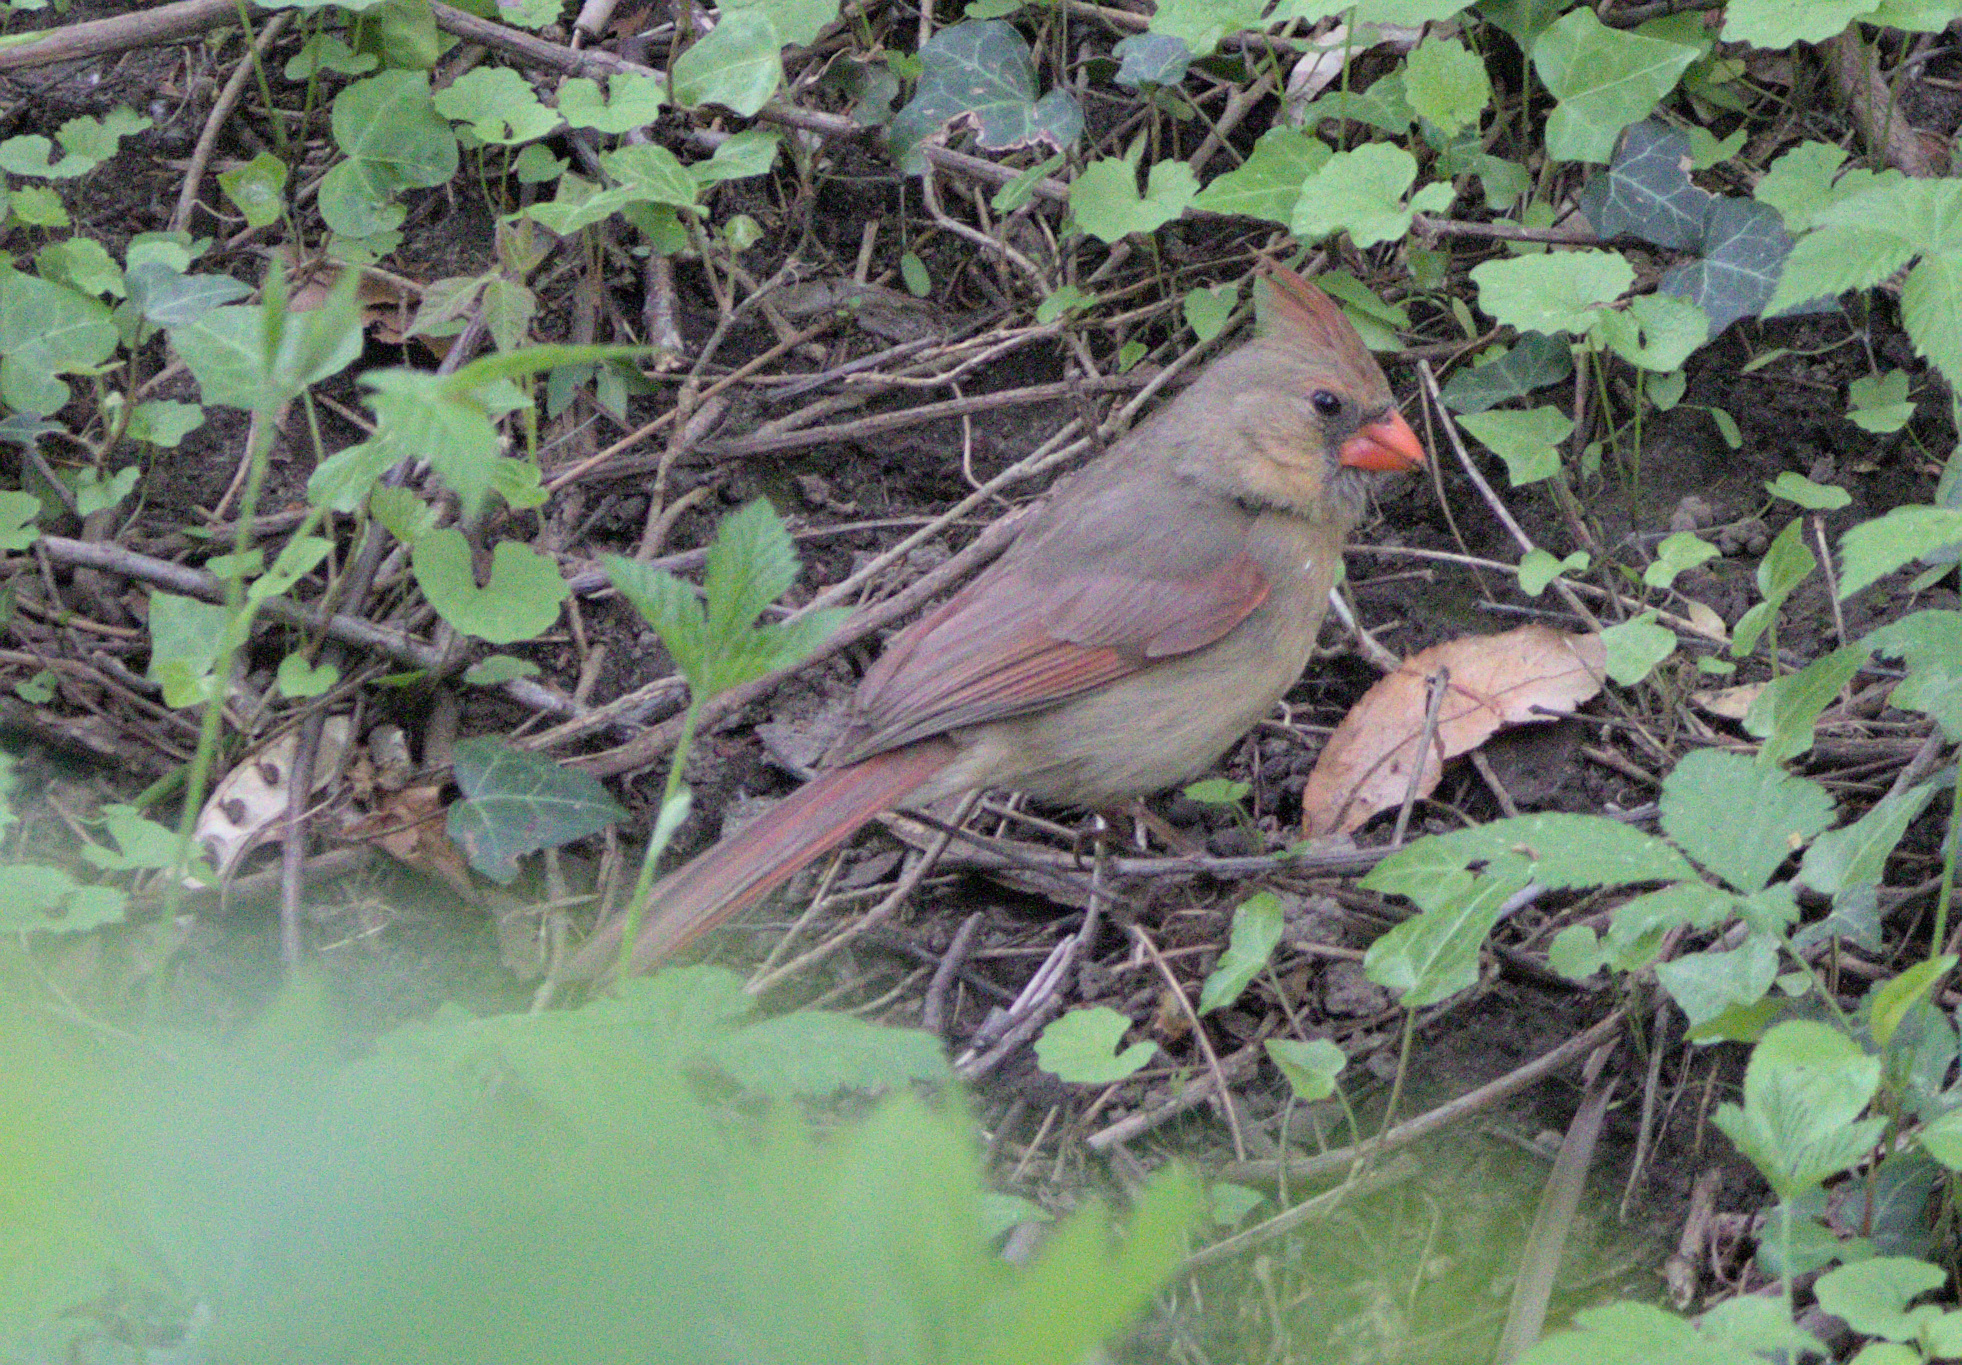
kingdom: Animalia
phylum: Chordata
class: Aves
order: Passeriformes
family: Cardinalidae
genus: Cardinalis
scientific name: Cardinalis cardinalis
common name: Northern cardinal
